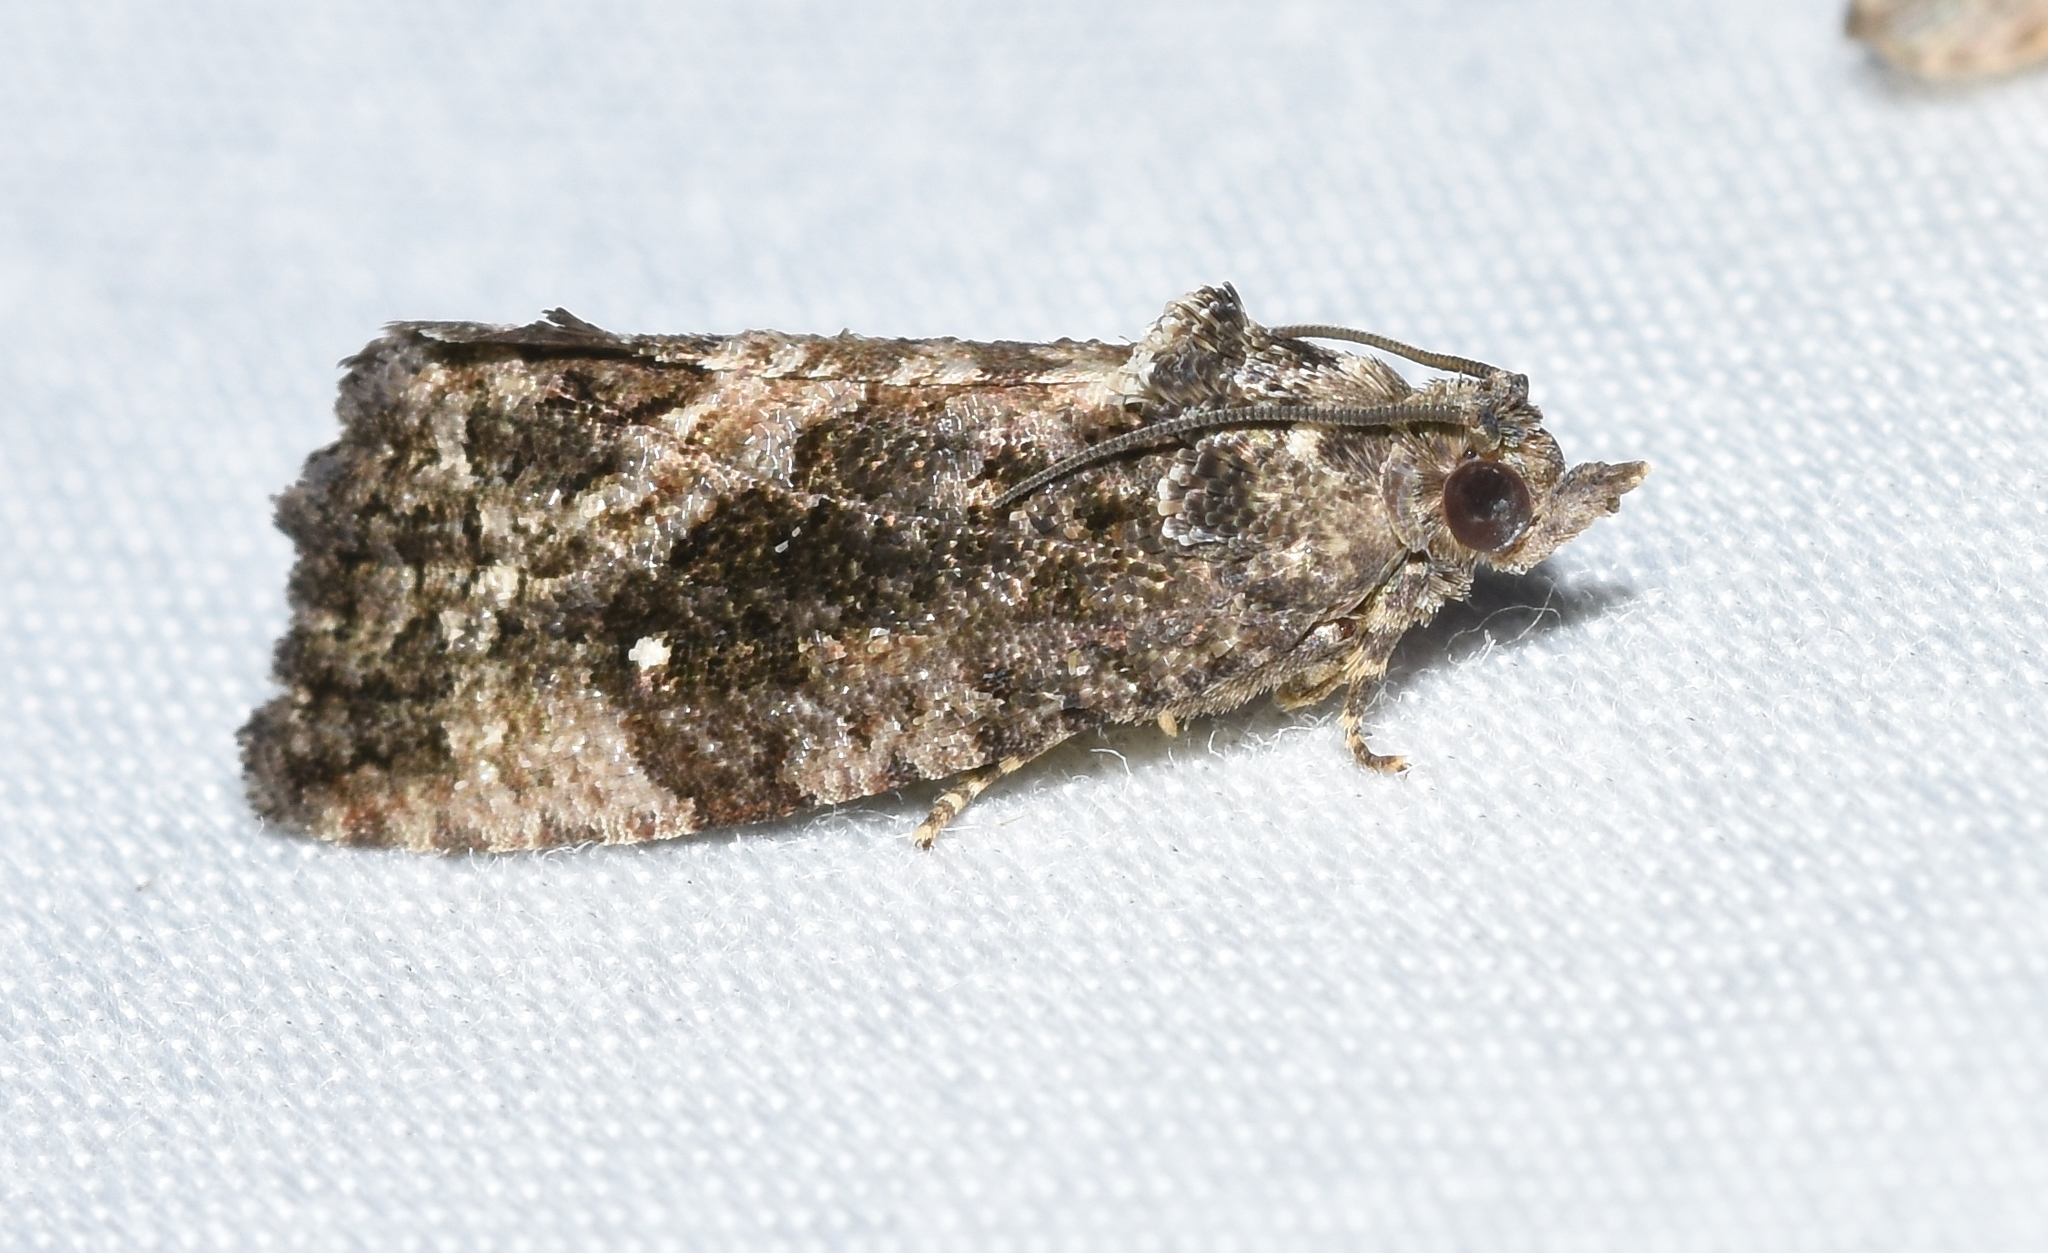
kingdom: Animalia
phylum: Arthropoda
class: Insecta
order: Lepidoptera
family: Tortricidae
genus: Gymnandrosoma
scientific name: Gymnandrosoma punctidiscanum
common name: Dotted ecdytolopha moth
